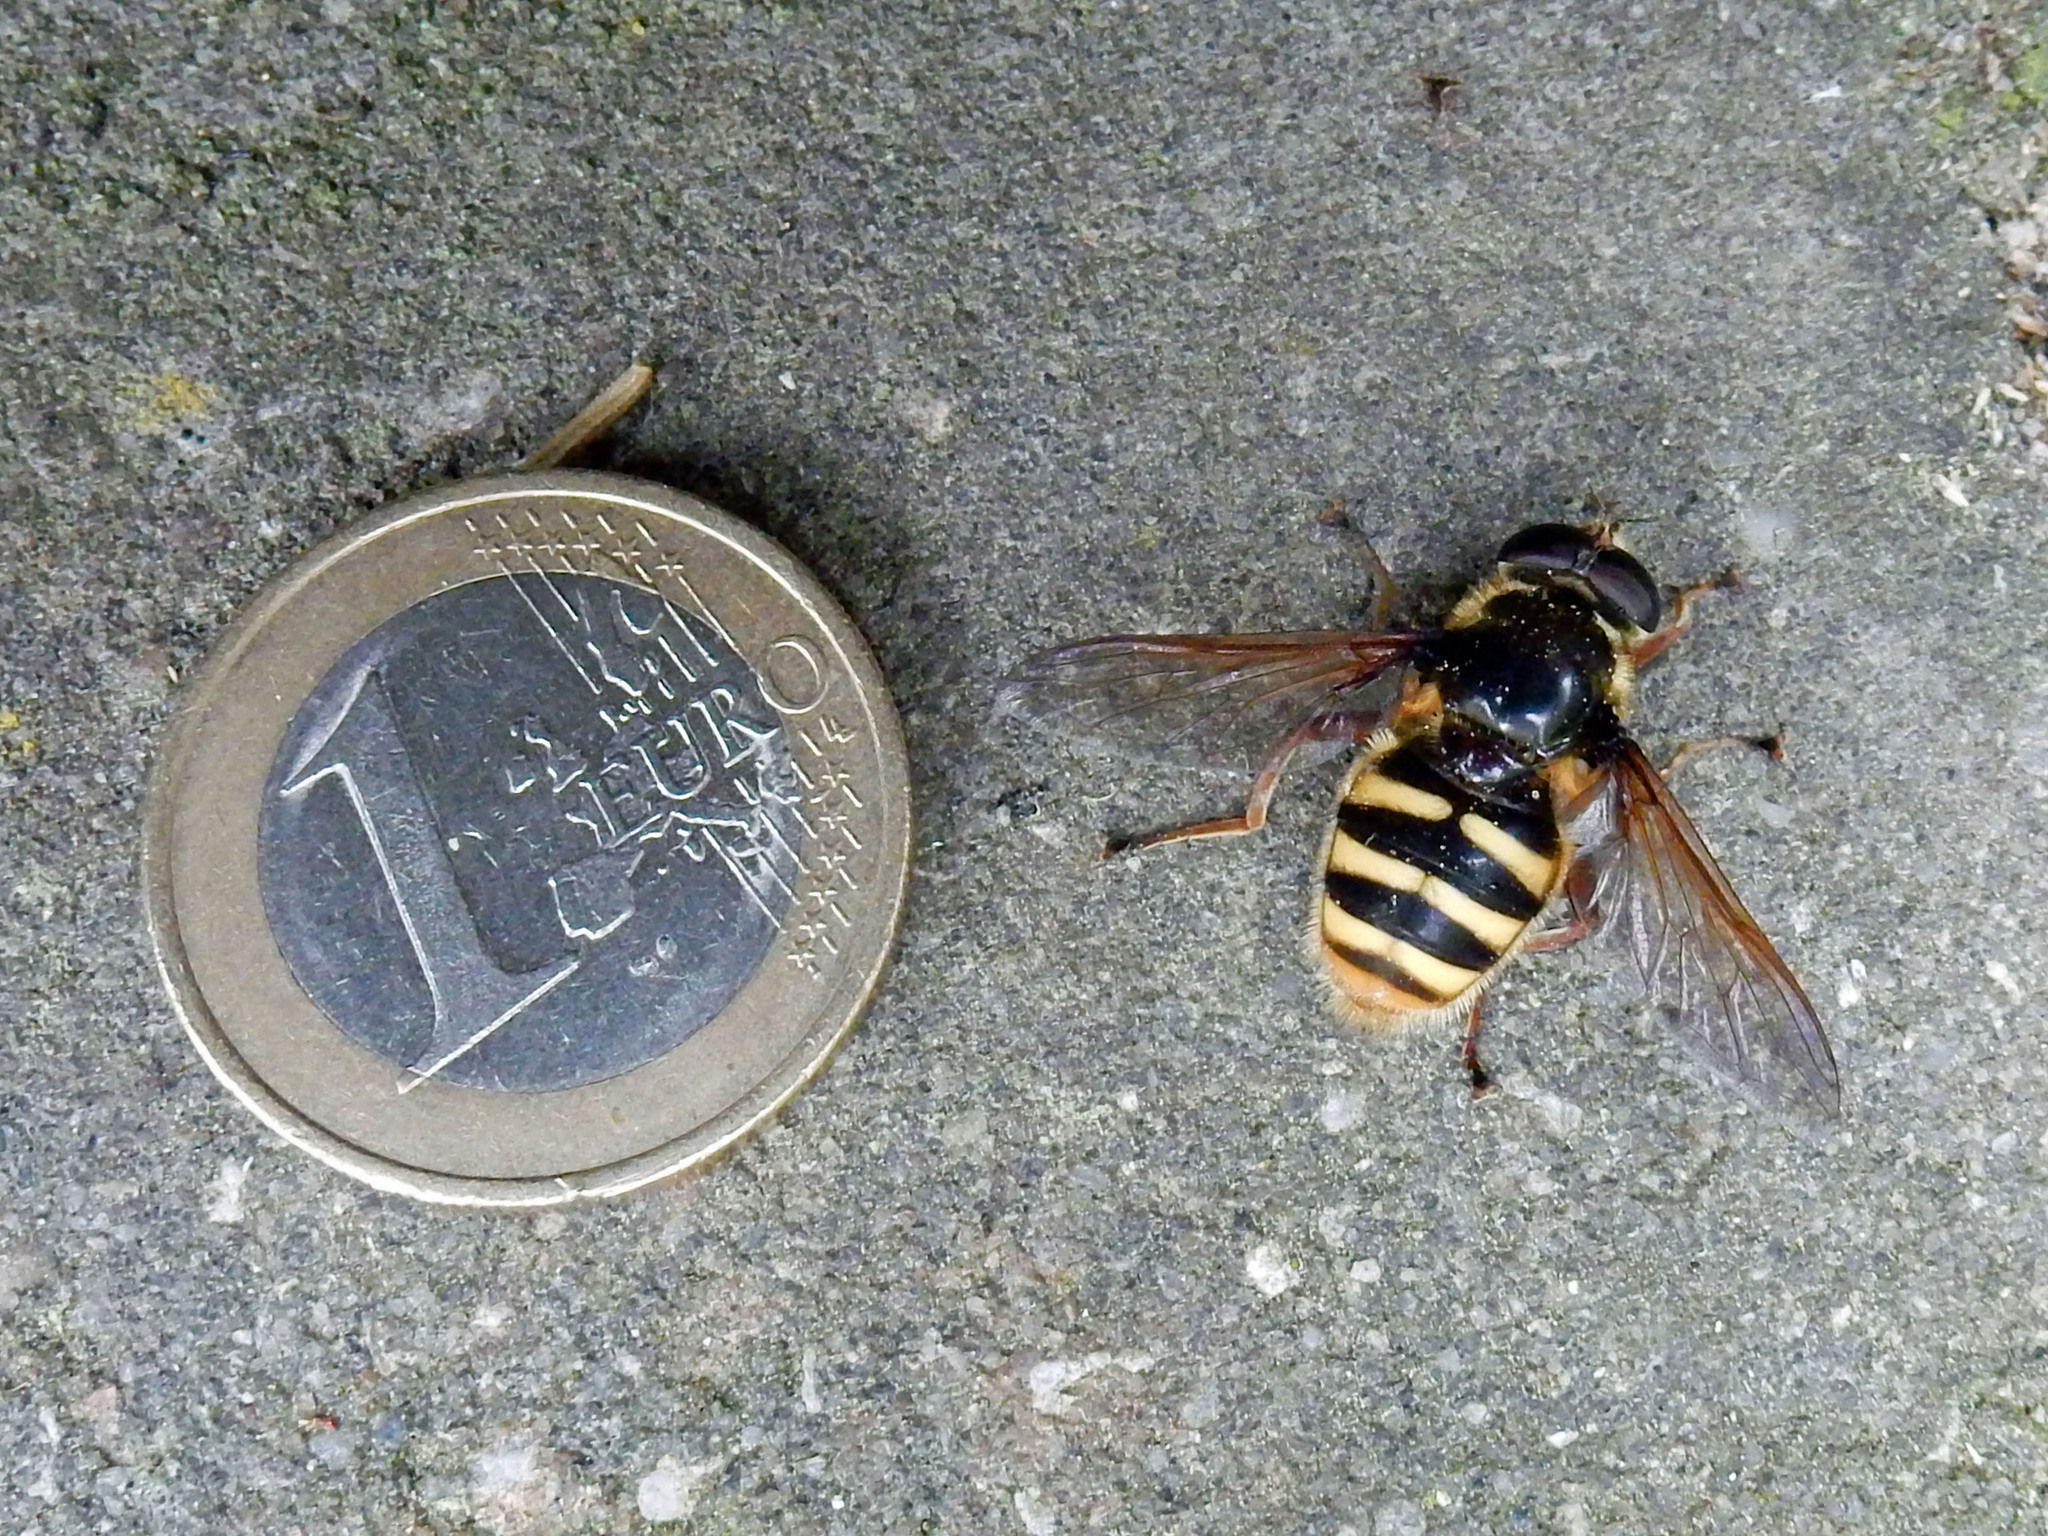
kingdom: Animalia
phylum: Arthropoda
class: Insecta
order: Diptera
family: Syrphidae
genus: Sericomyia
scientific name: Sericomyia silentis
